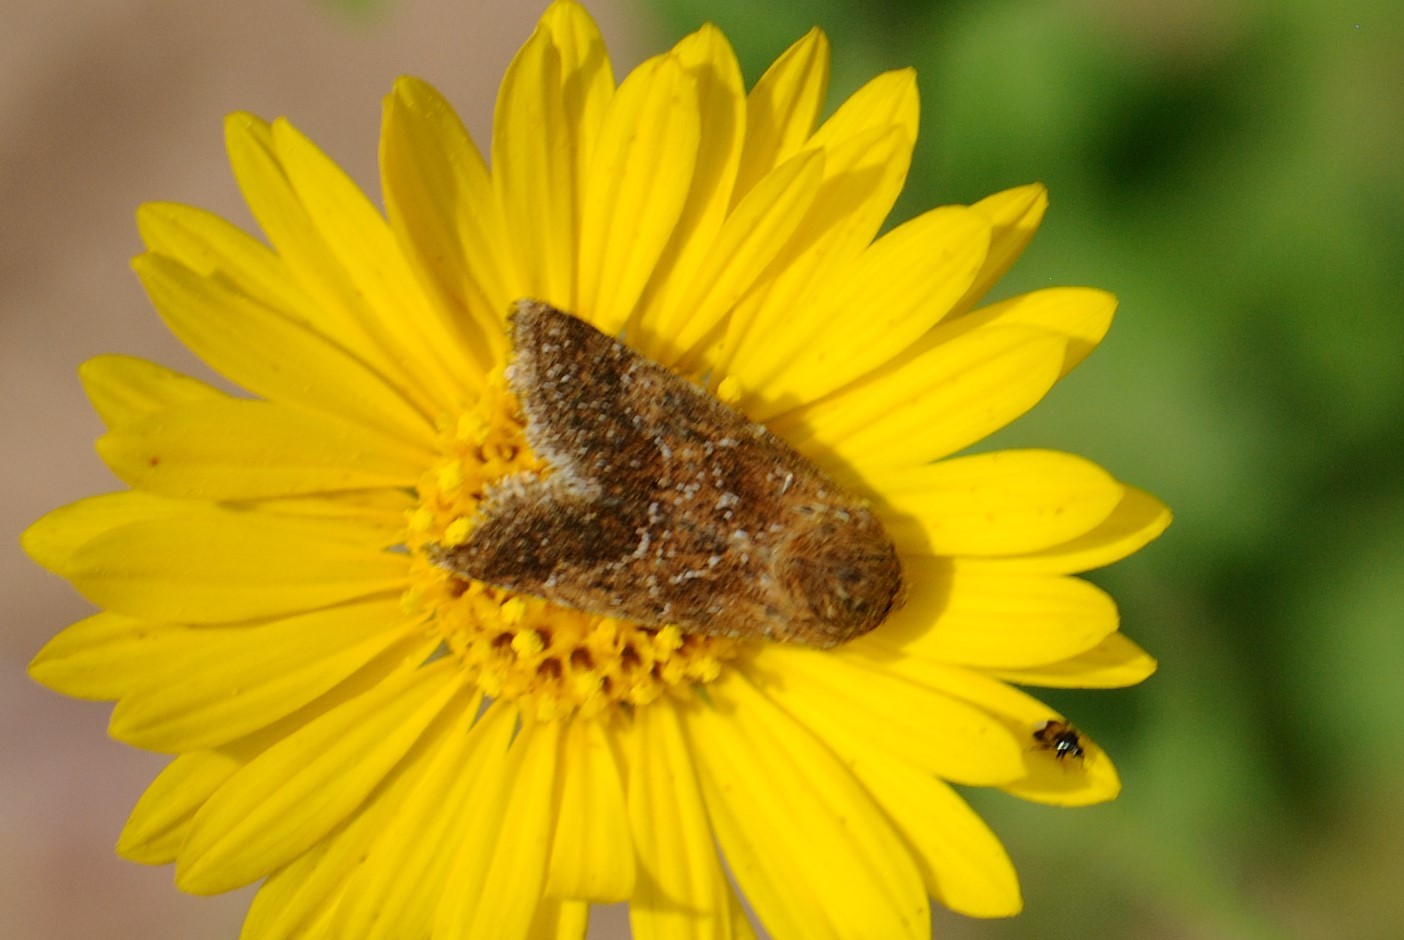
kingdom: Animalia
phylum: Arthropoda
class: Insecta
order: Lepidoptera
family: Noctuidae
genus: Schinia
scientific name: Schinia nubila
